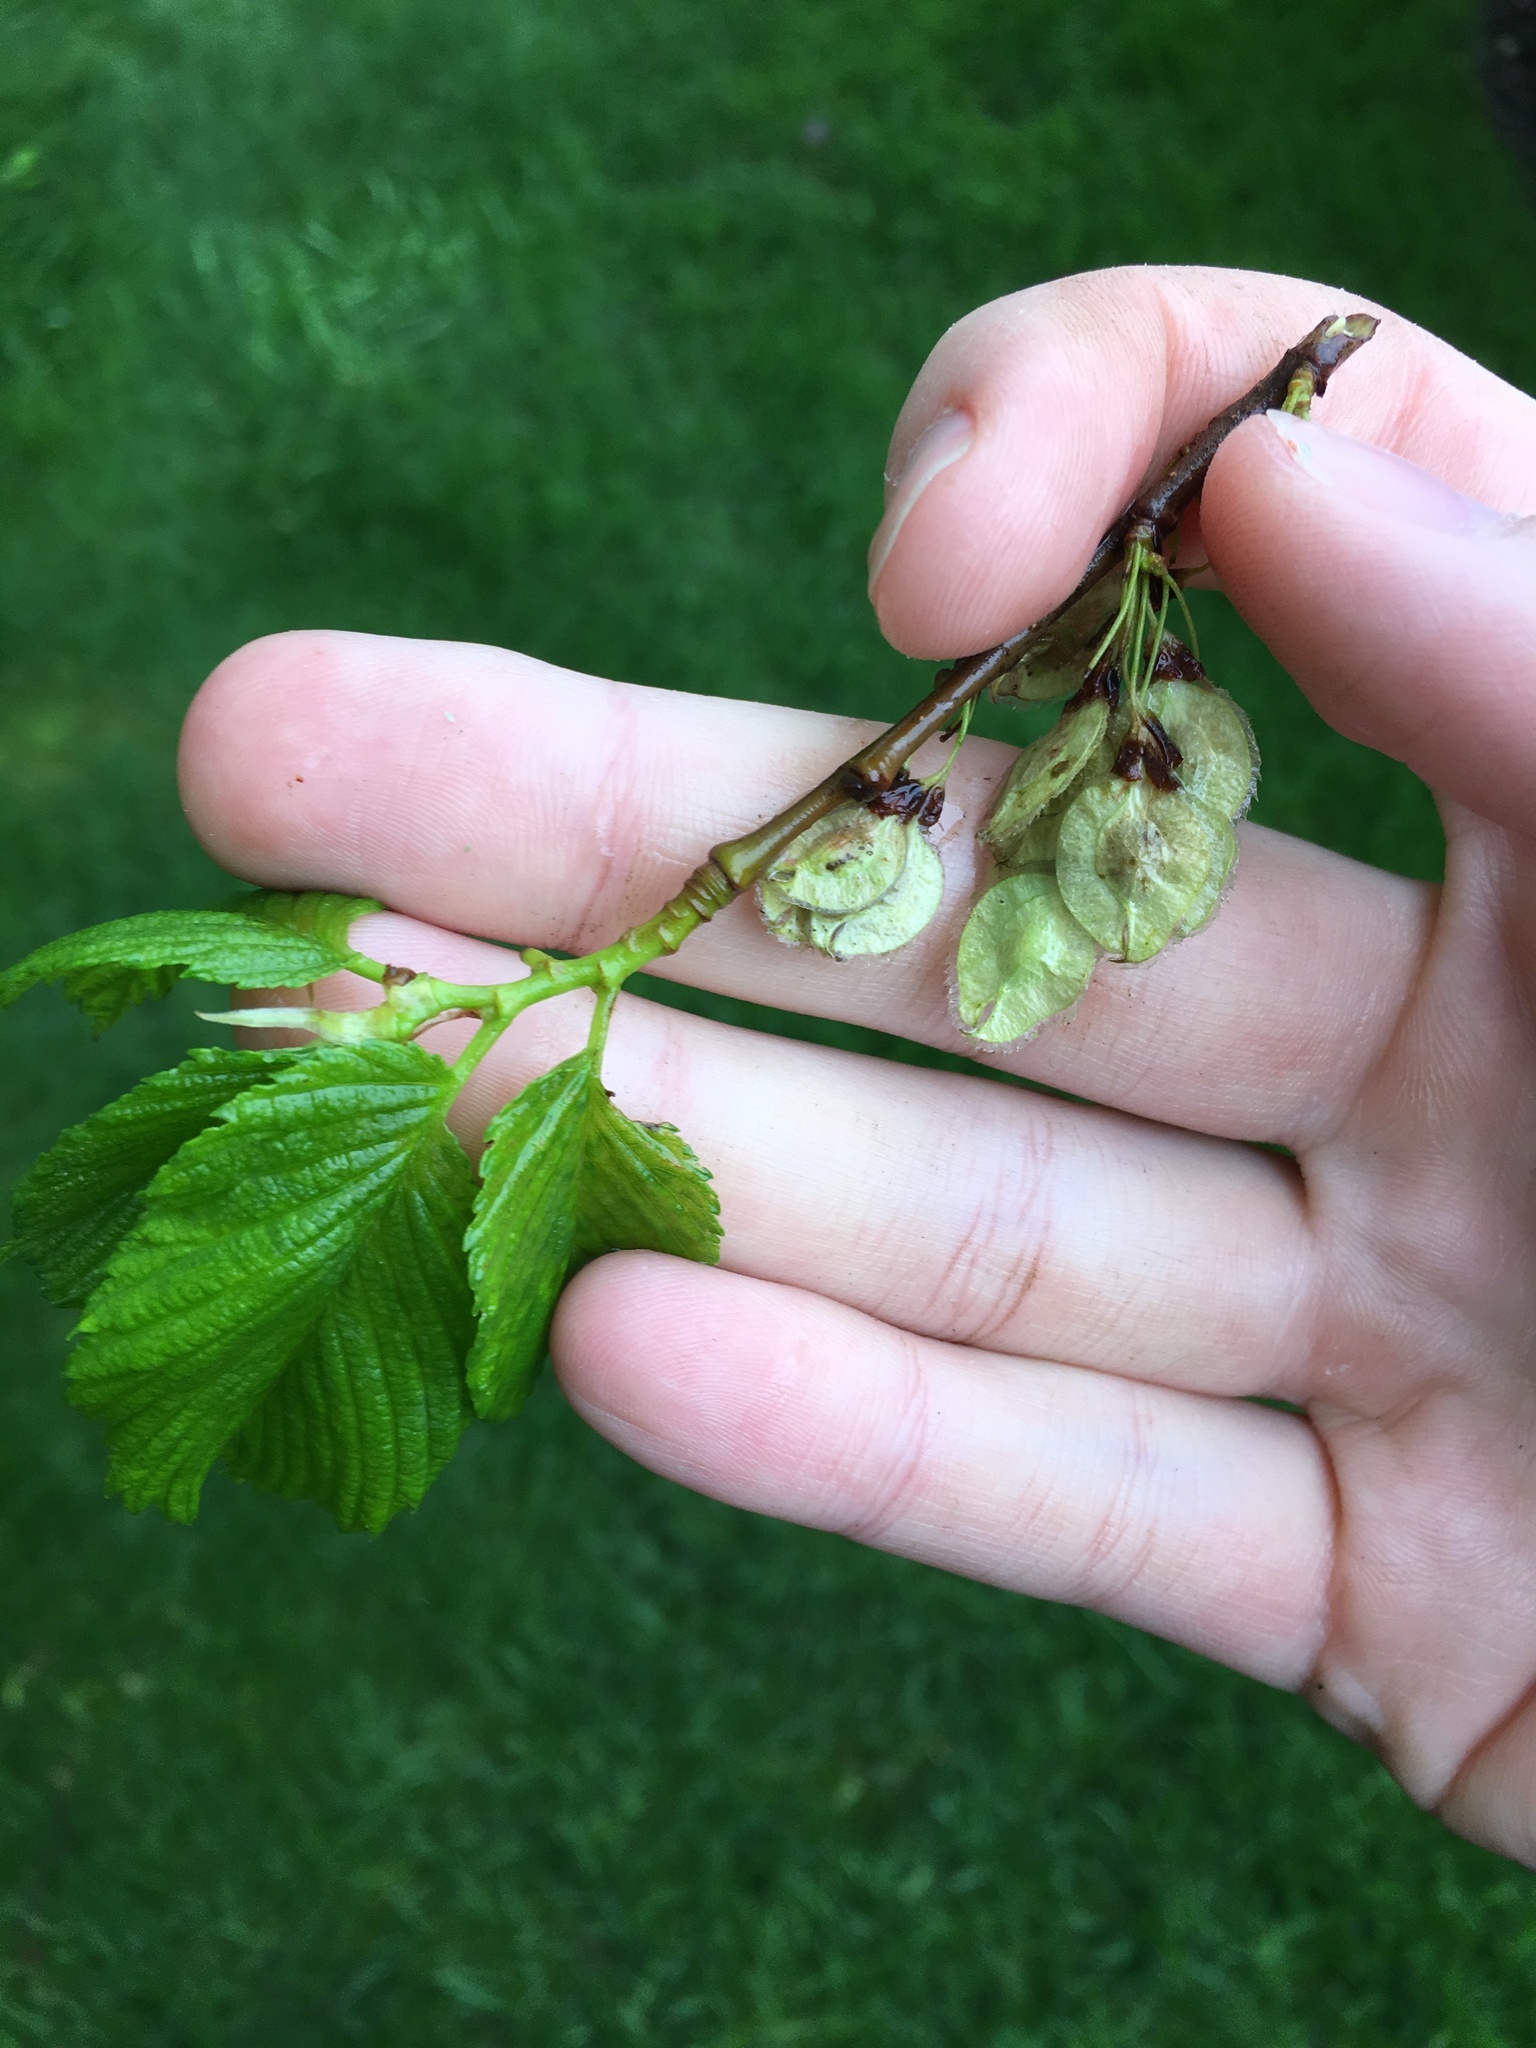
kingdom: Plantae
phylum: Tracheophyta
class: Magnoliopsida
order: Rosales
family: Ulmaceae
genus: Ulmus
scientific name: Ulmus americana
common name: American elm
